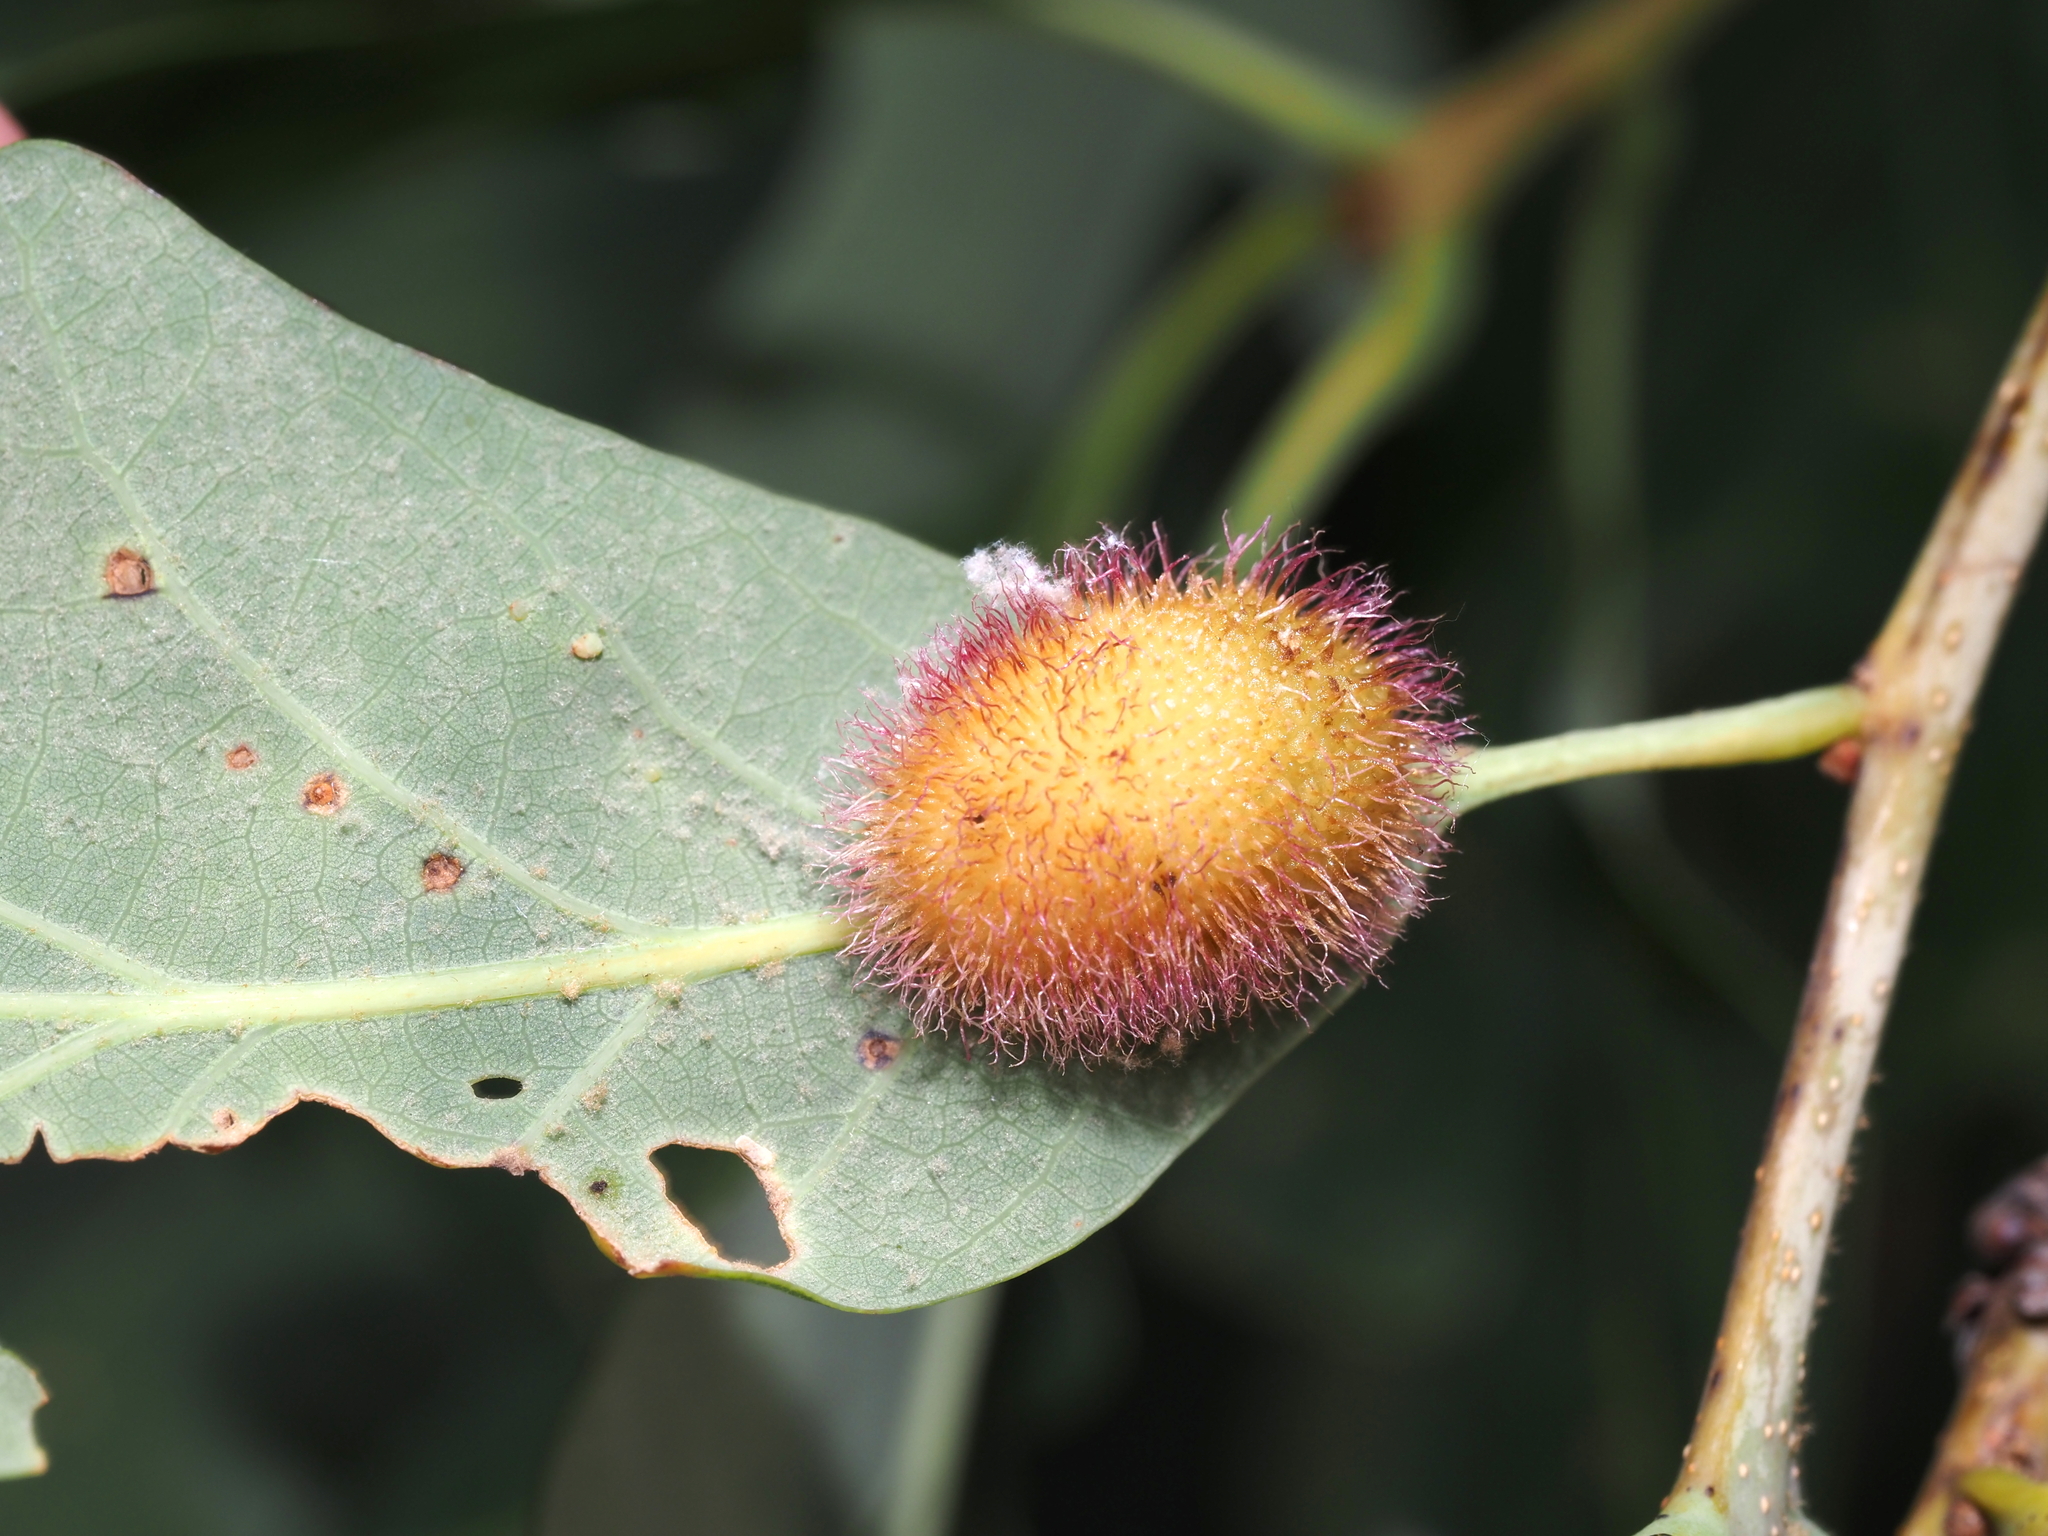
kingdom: Animalia
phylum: Arthropoda
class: Insecta
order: Hymenoptera
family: Cynipidae
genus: Acraspis
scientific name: Acraspis erinacei
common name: Hedgehog gall wasp
